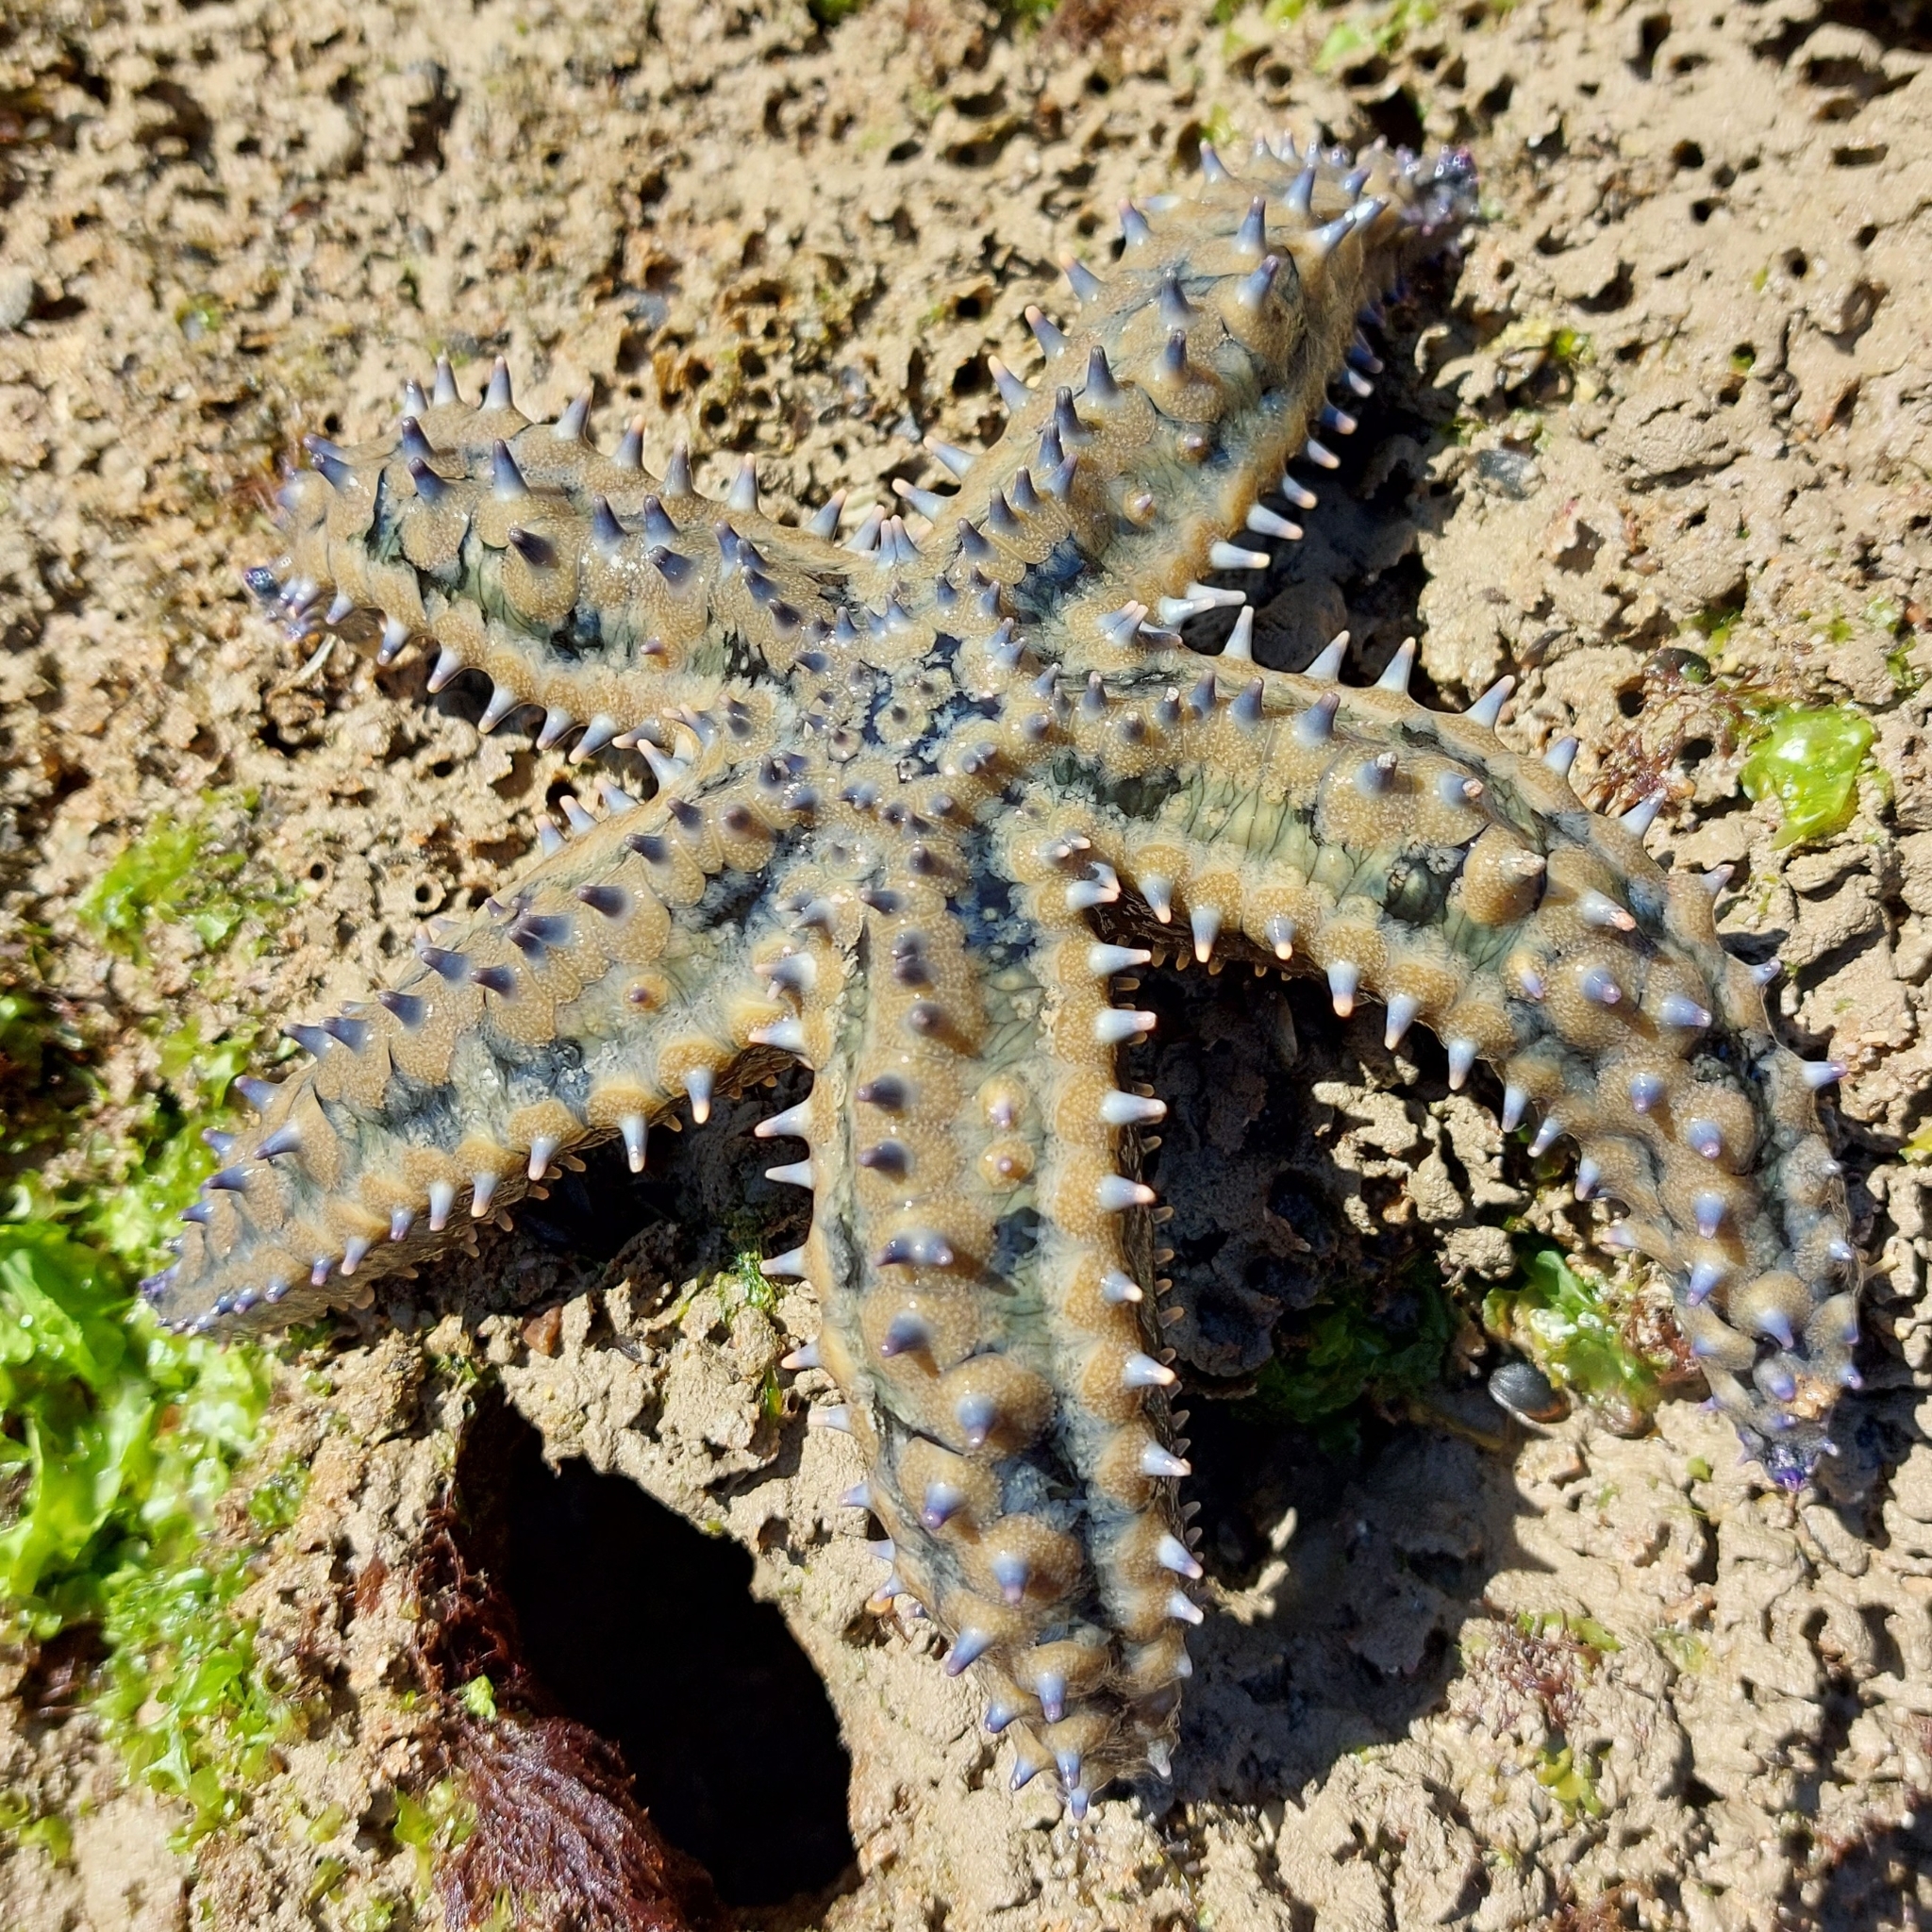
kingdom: Animalia
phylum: Echinodermata
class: Asteroidea
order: Forcipulatida
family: Asteriidae
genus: Marthasterias
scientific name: Marthasterias glacialis
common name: Spiny starfish
